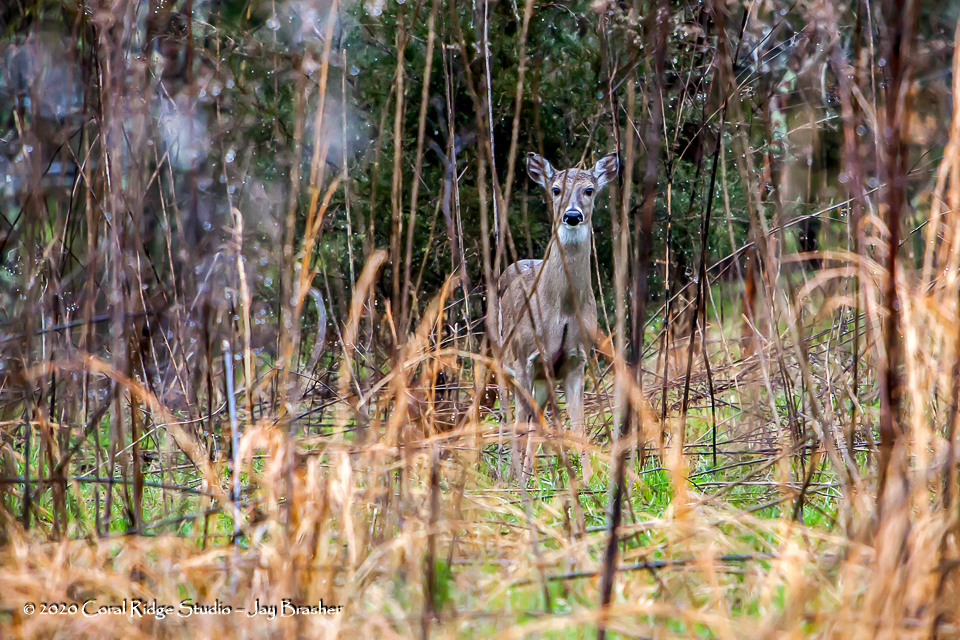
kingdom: Animalia
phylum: Chordata
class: Mammalia
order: Artiodactyla
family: Cervidae
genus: Odocoileus
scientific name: Odocoileus virginianus
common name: White-tailed deer
